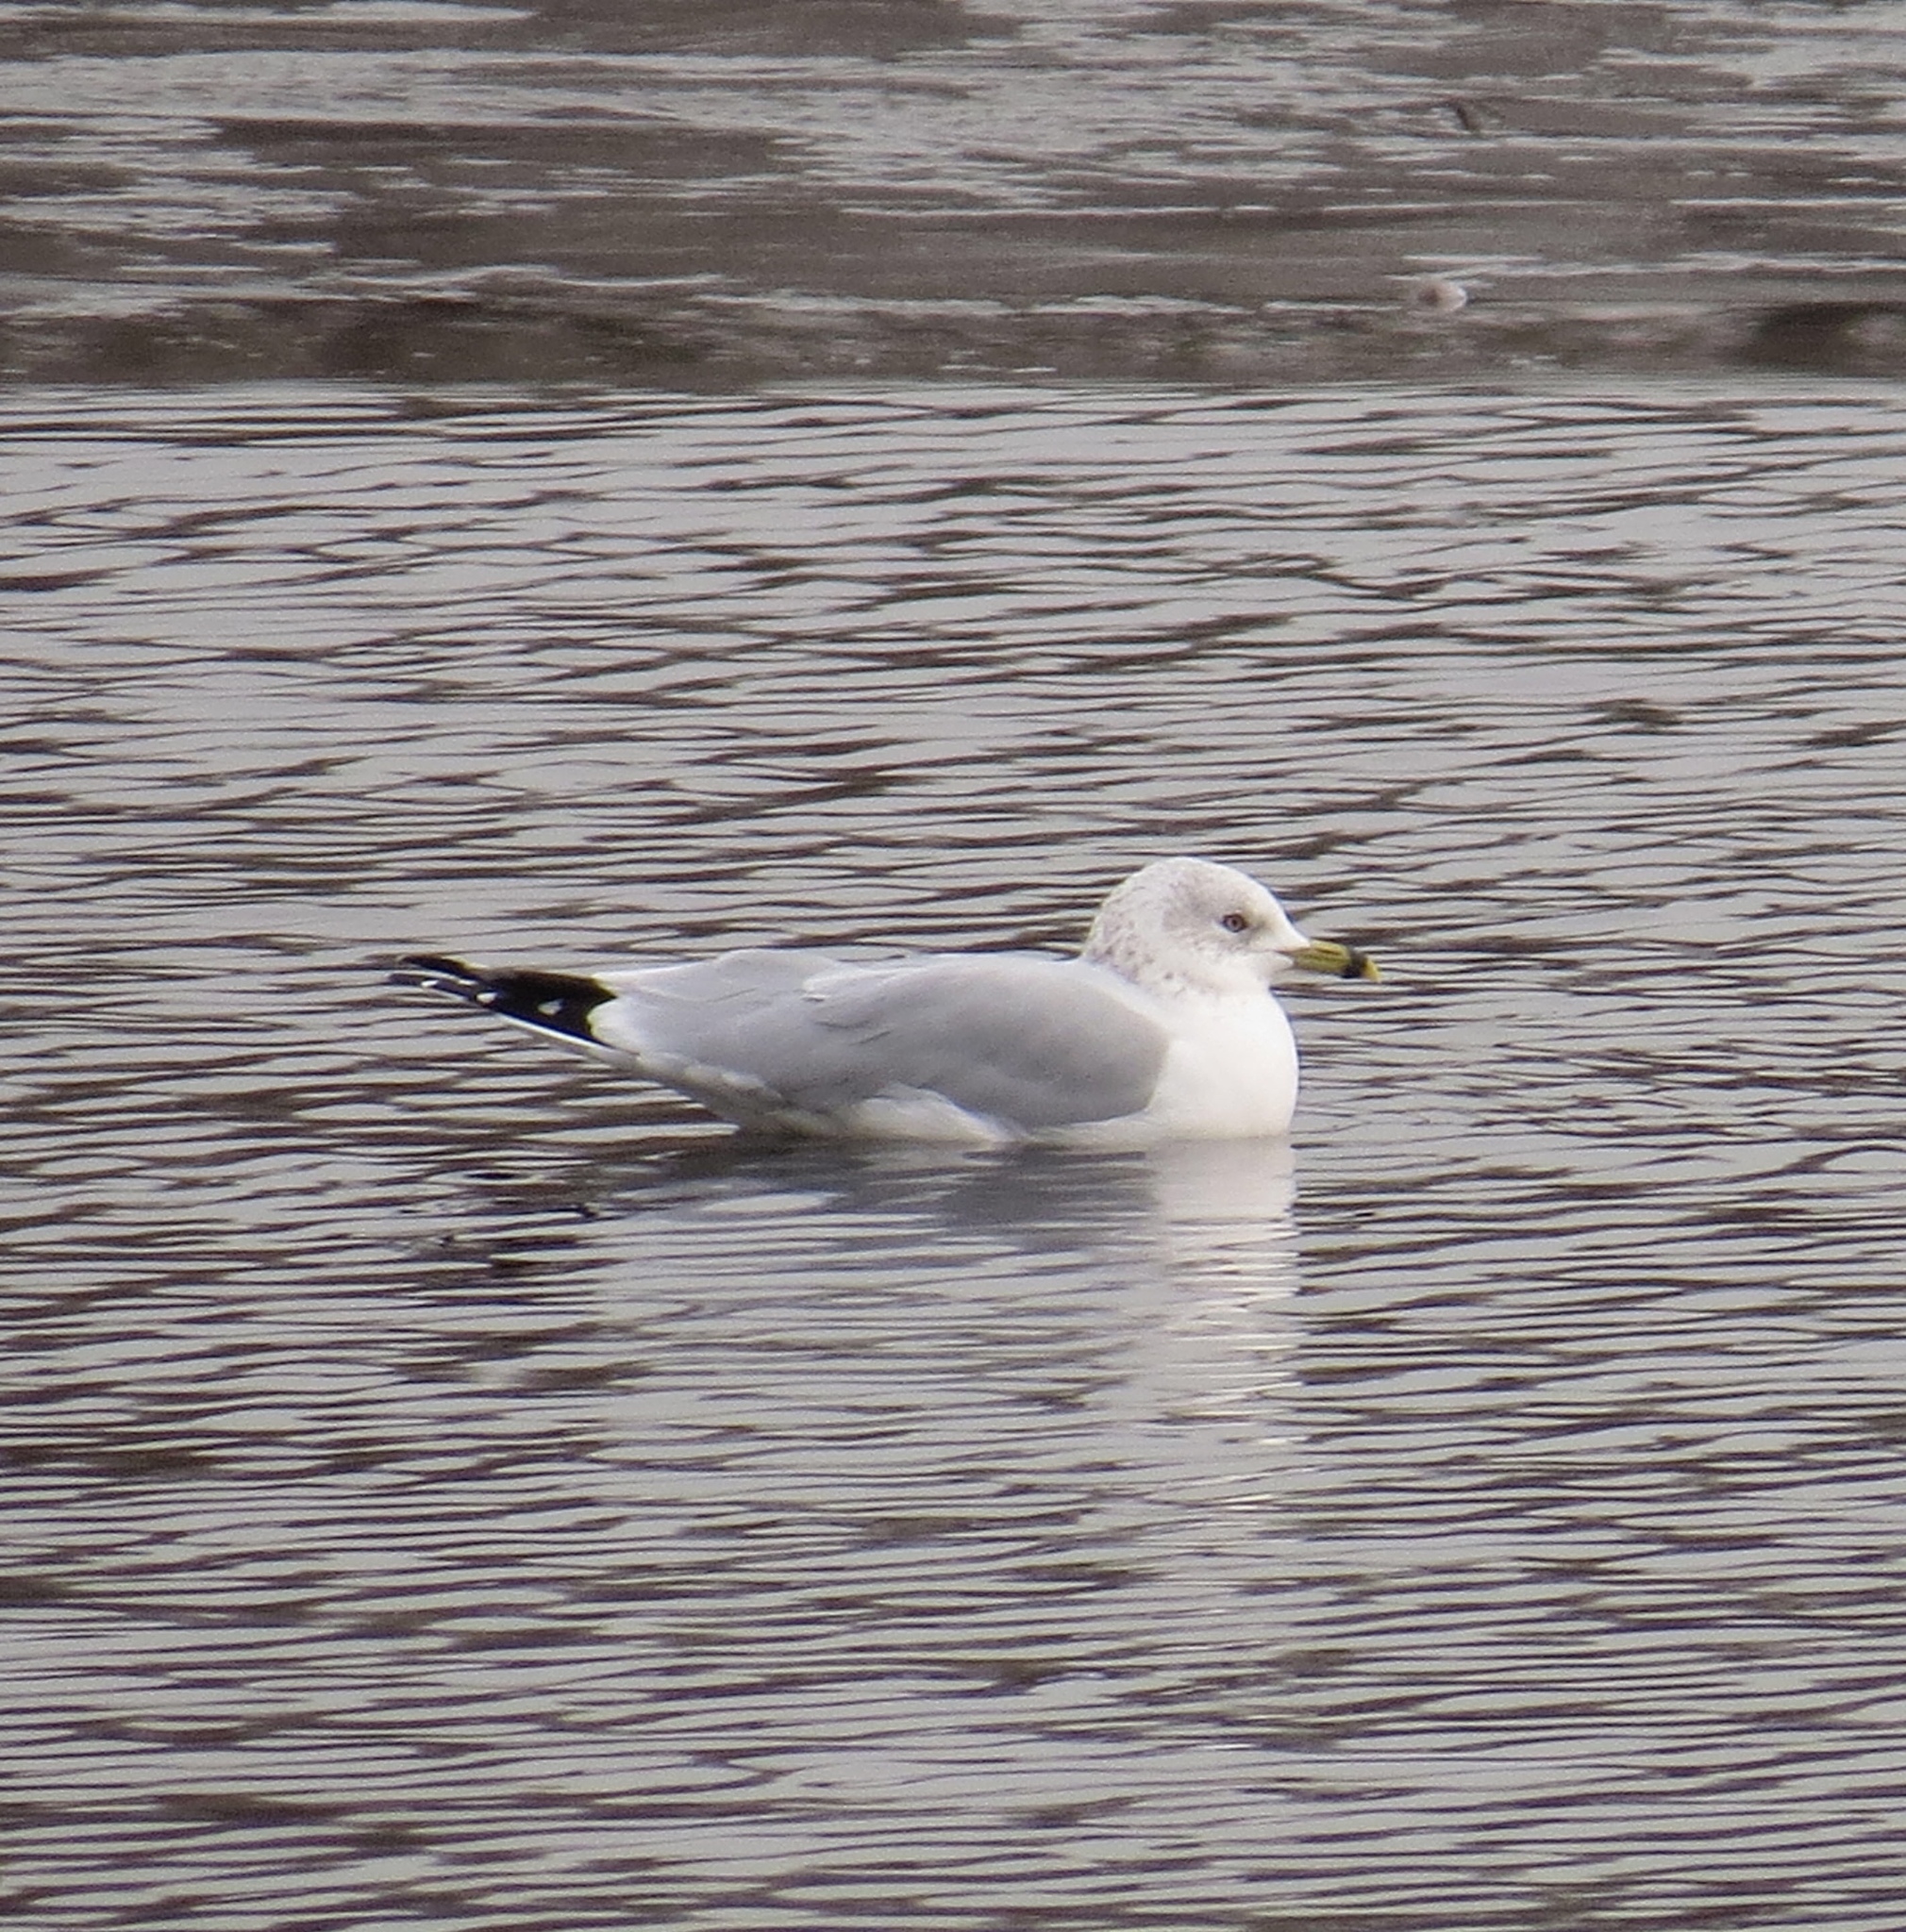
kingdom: Animalia
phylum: Chordata
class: Aves
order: Charadriiformes
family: Laridae
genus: Larus
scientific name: Larus delawarensis
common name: Ring-billed gull
